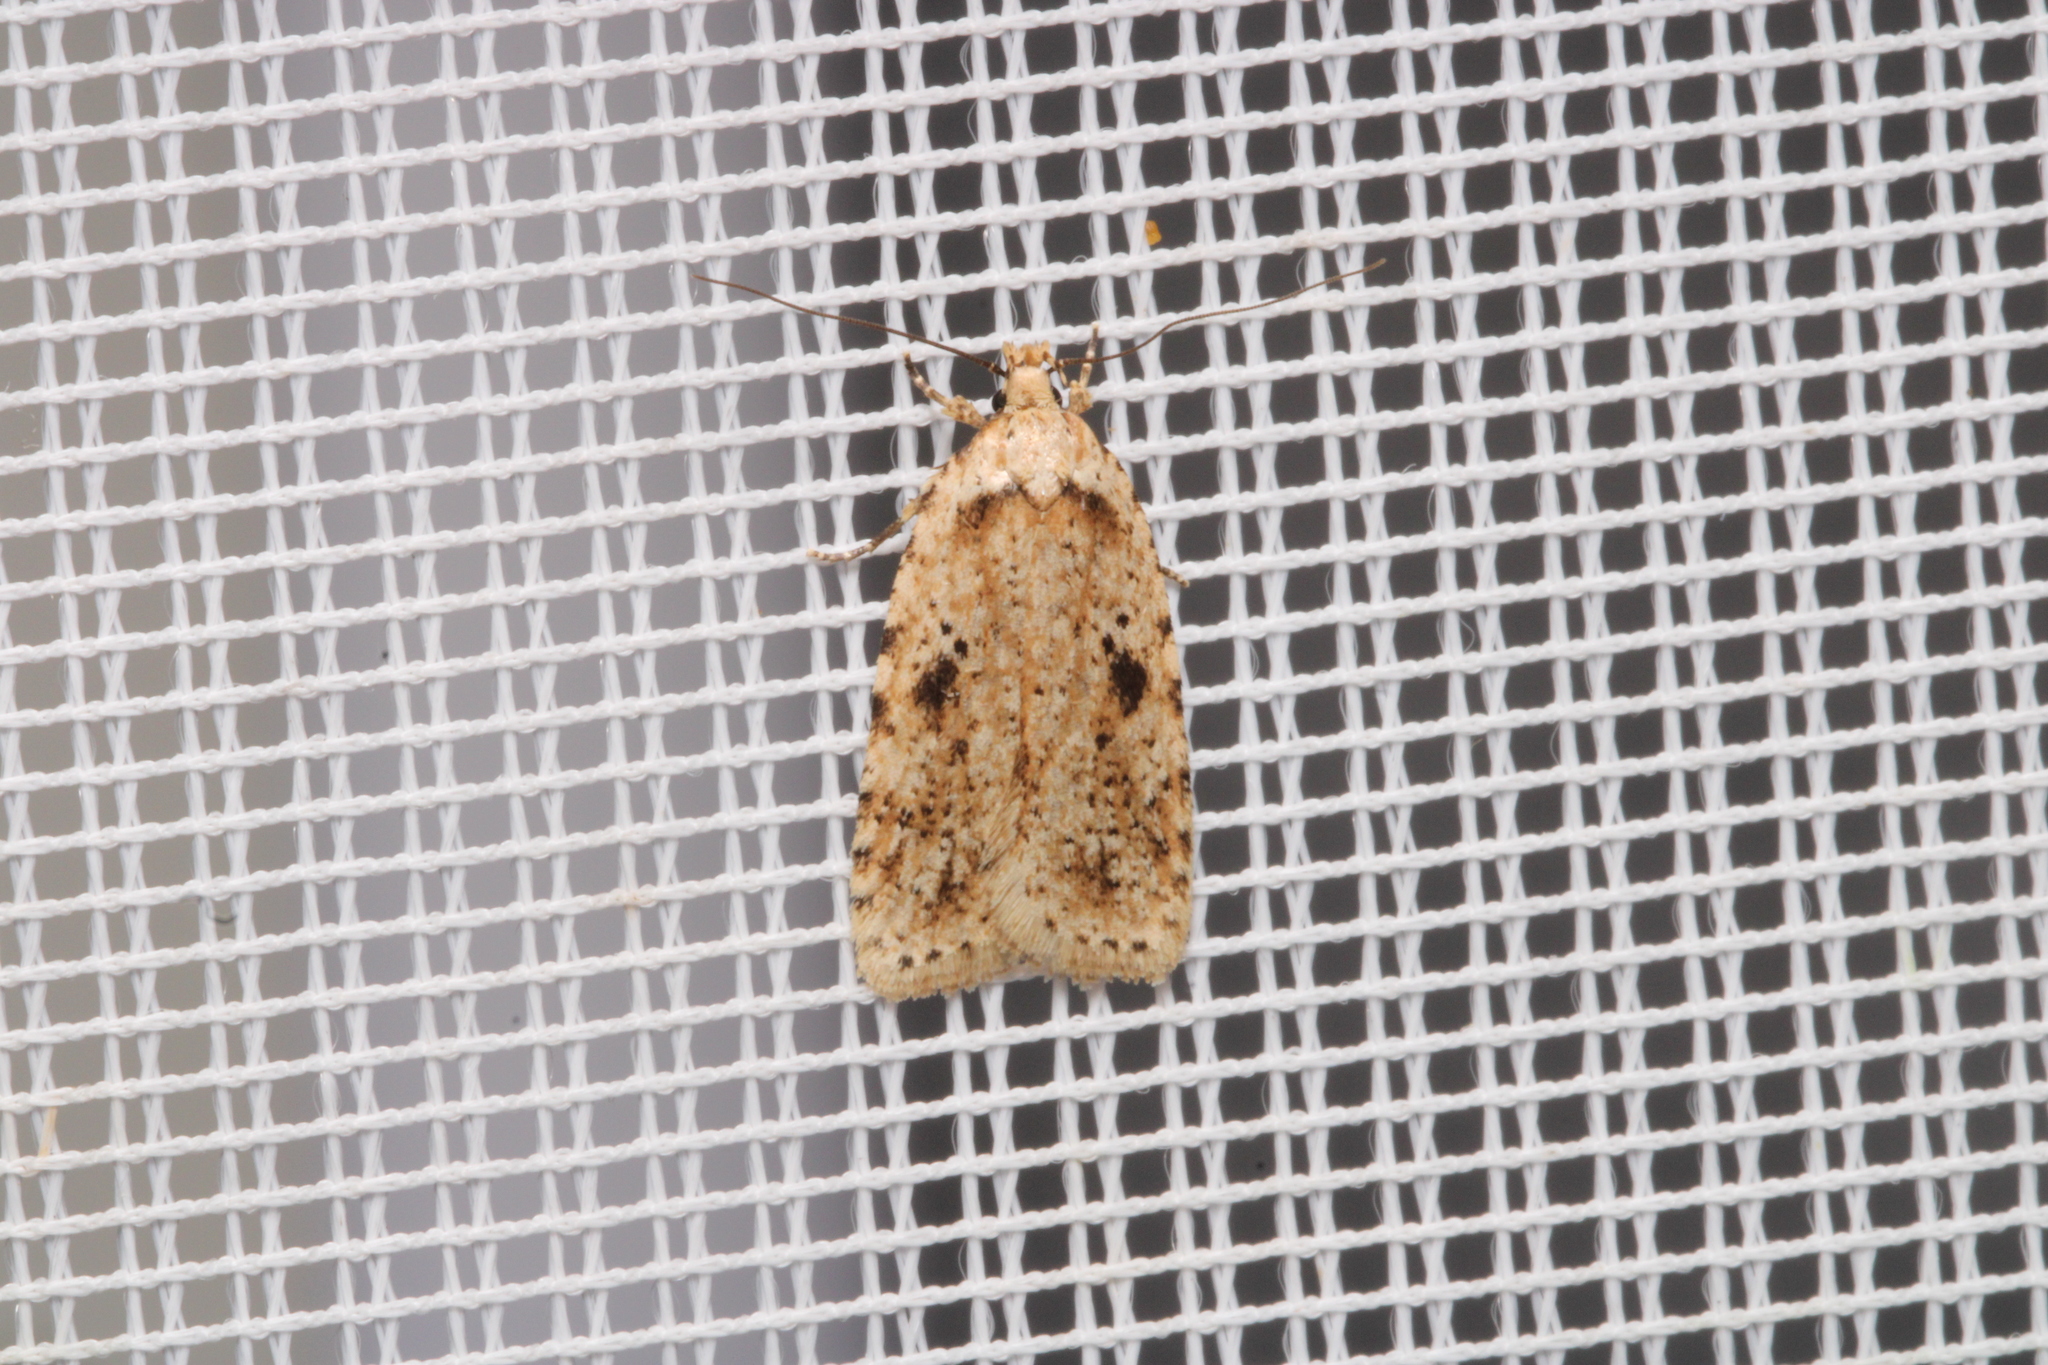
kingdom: Animalia
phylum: Arthropoda
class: Insecta
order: Lepidoptera
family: Depressariidae
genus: Agonopterix
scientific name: Agonopterix arenella
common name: Brindled flat-body
